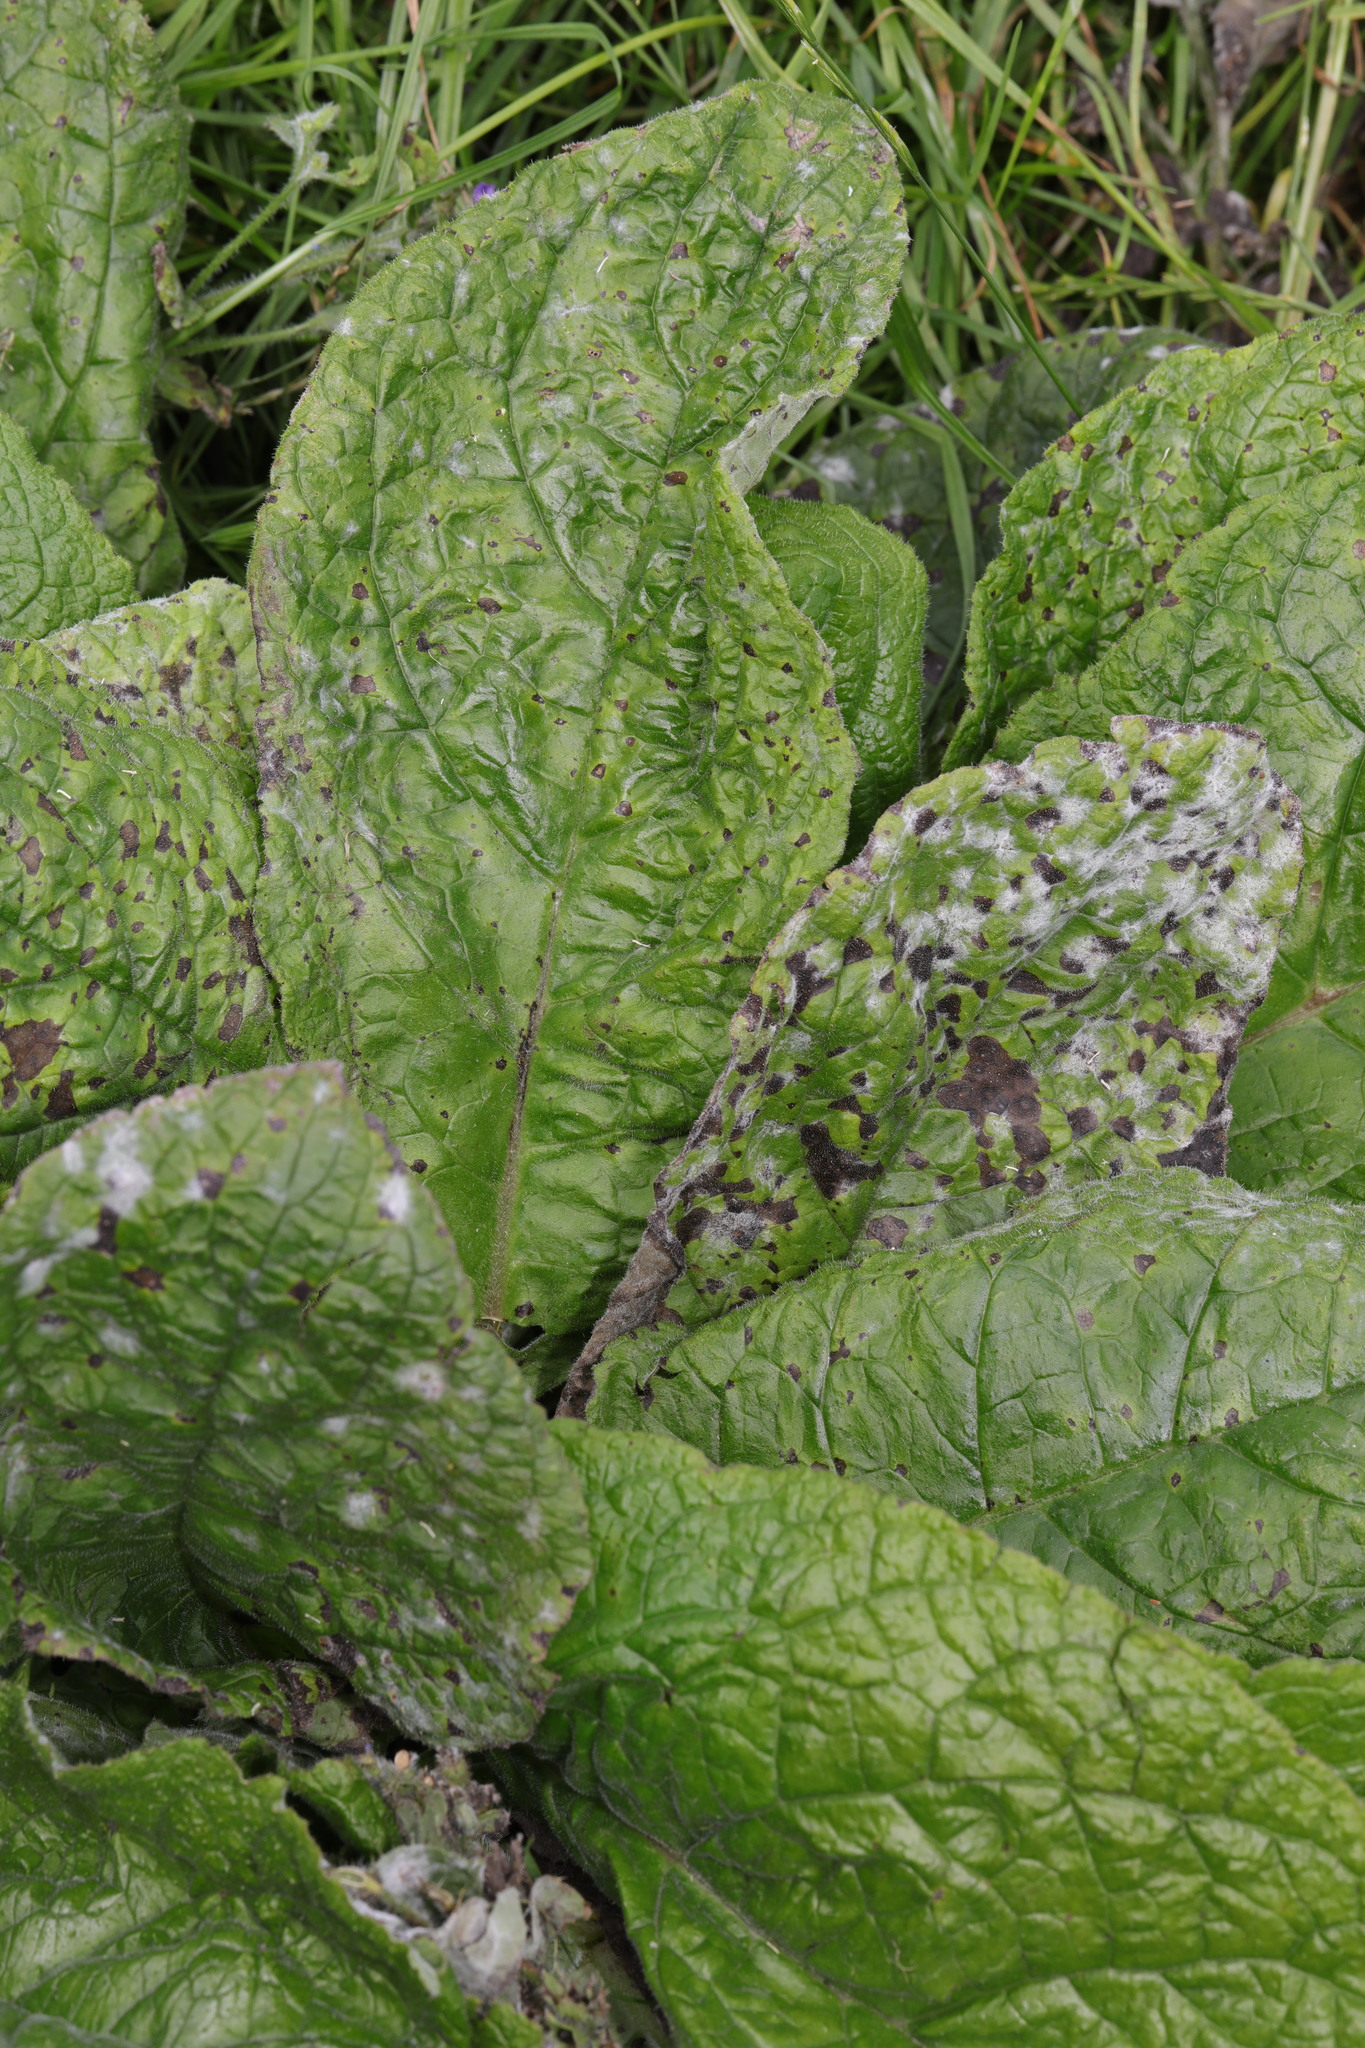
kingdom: Plantae
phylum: Tracheophyta
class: Magnoliopsida
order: Boraginales
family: Boraginaceae
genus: Pentaglottis
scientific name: Pentaglottis sempervirens
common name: Green alkanet
